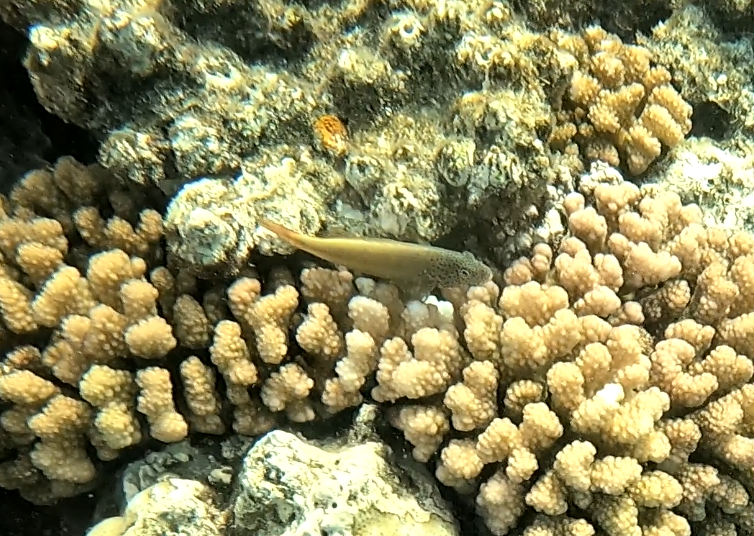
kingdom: Animalia
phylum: Chordata
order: Perciformes
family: Cirrhitidae
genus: Paracirrhites
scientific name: Paracirrhites forsteri
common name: Freckled hawkfish
